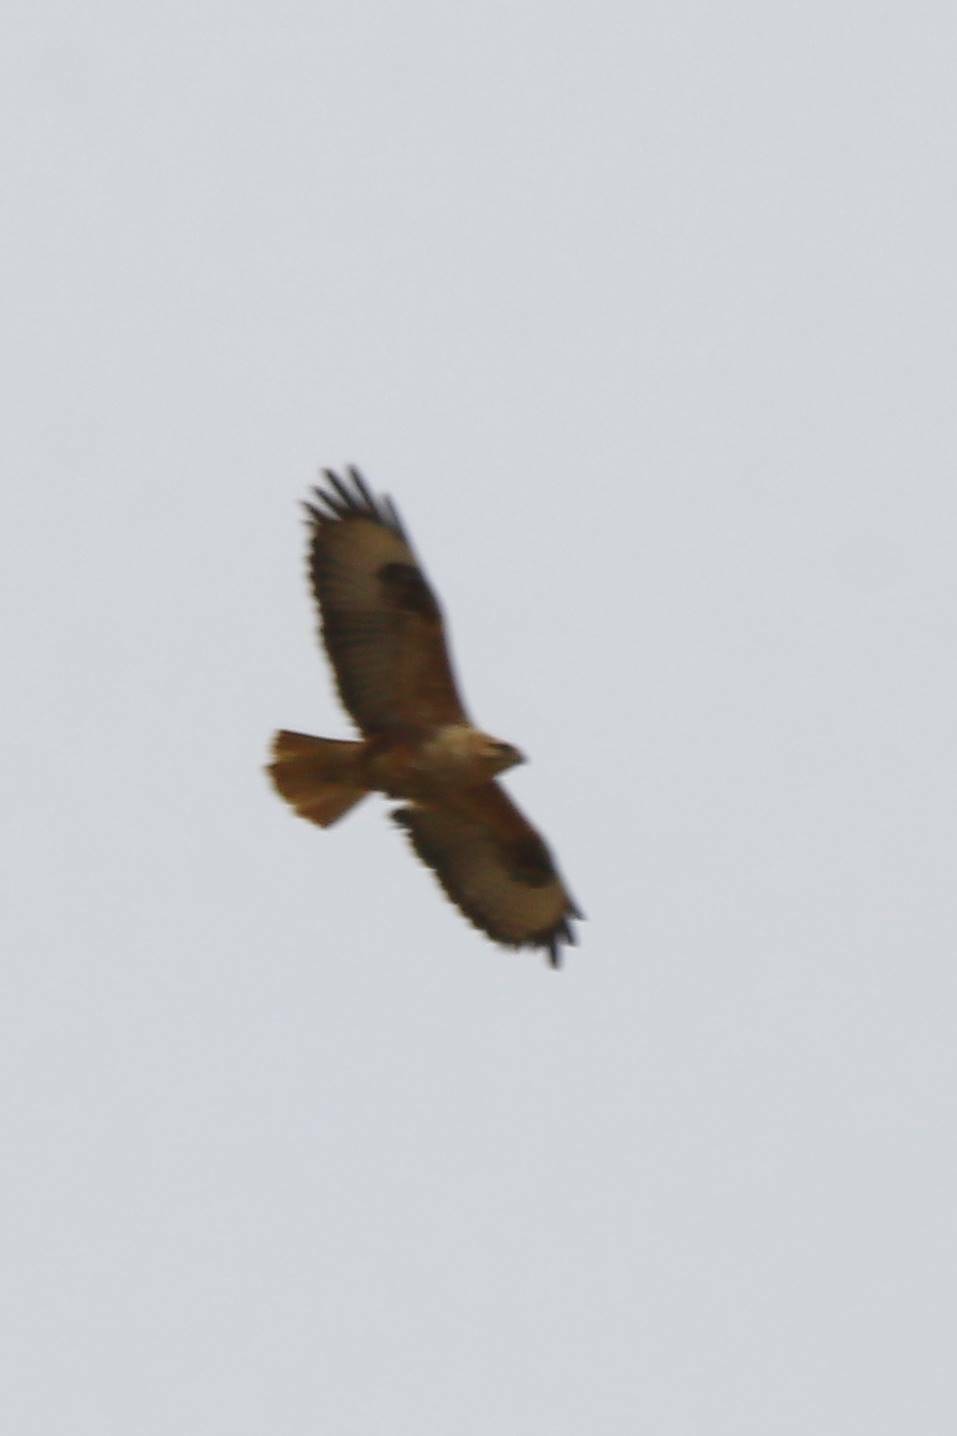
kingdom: Animalia
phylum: Chordata
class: Aves
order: Accipitriformes
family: Accipitridae
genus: Buteo
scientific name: Buteo rufinus
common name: Long-legged buzzard
